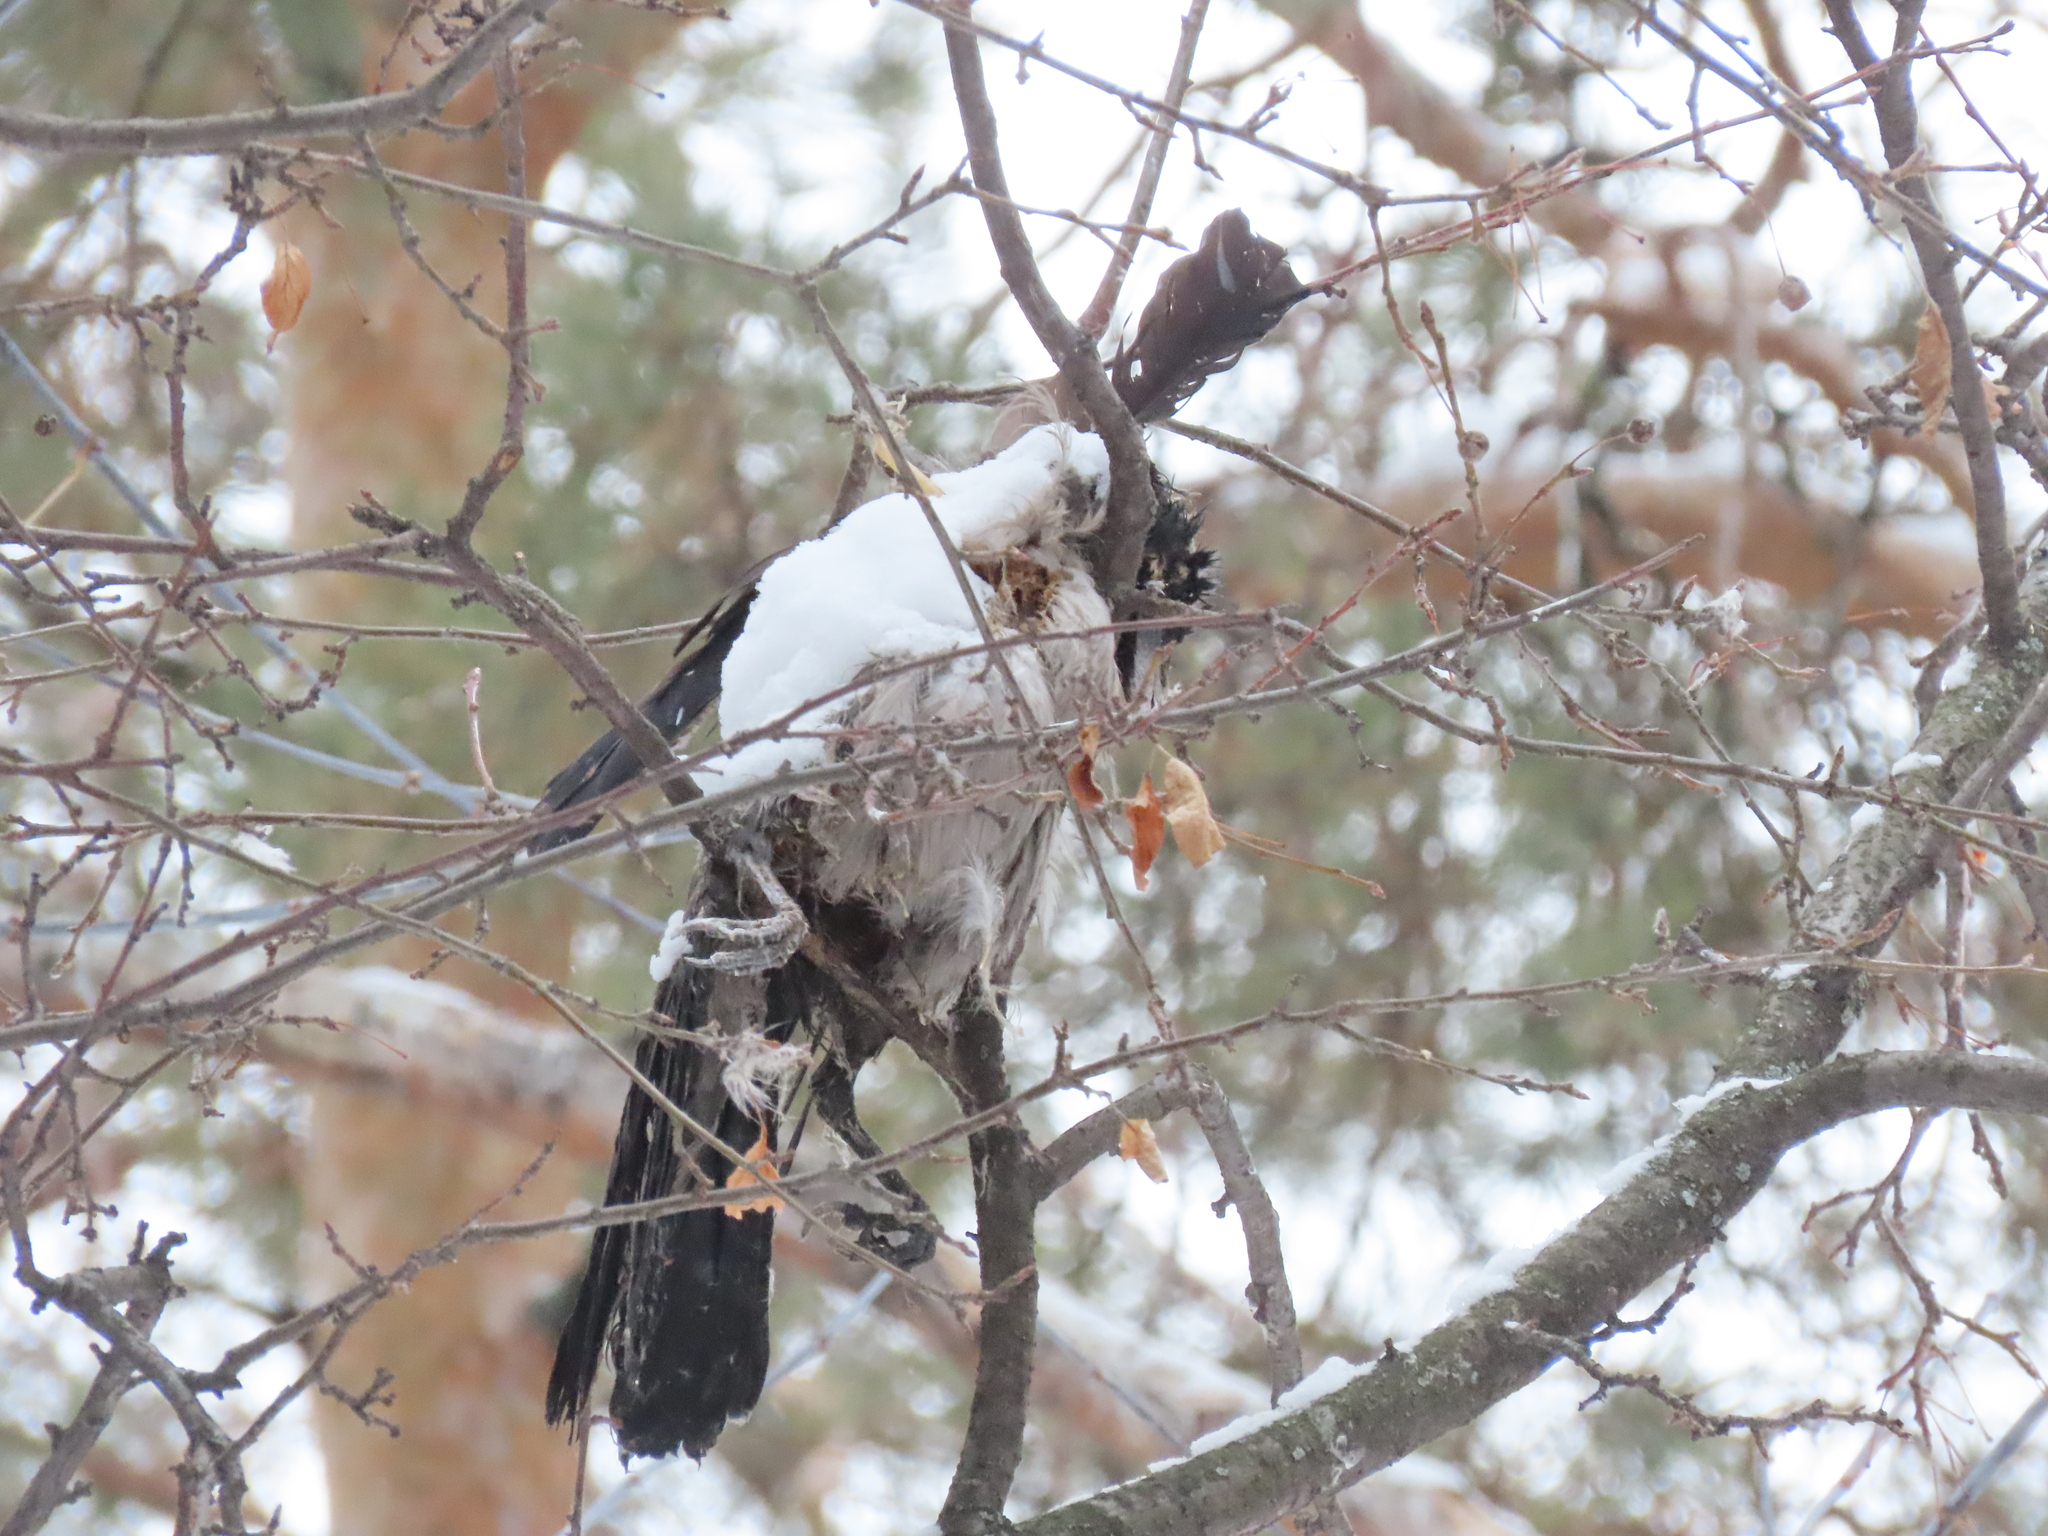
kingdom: Animalia
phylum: Chordata
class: Aves
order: Passeriformes
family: Corvidae
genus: Corvus
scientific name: Corvus cornix
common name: Hooded crow
